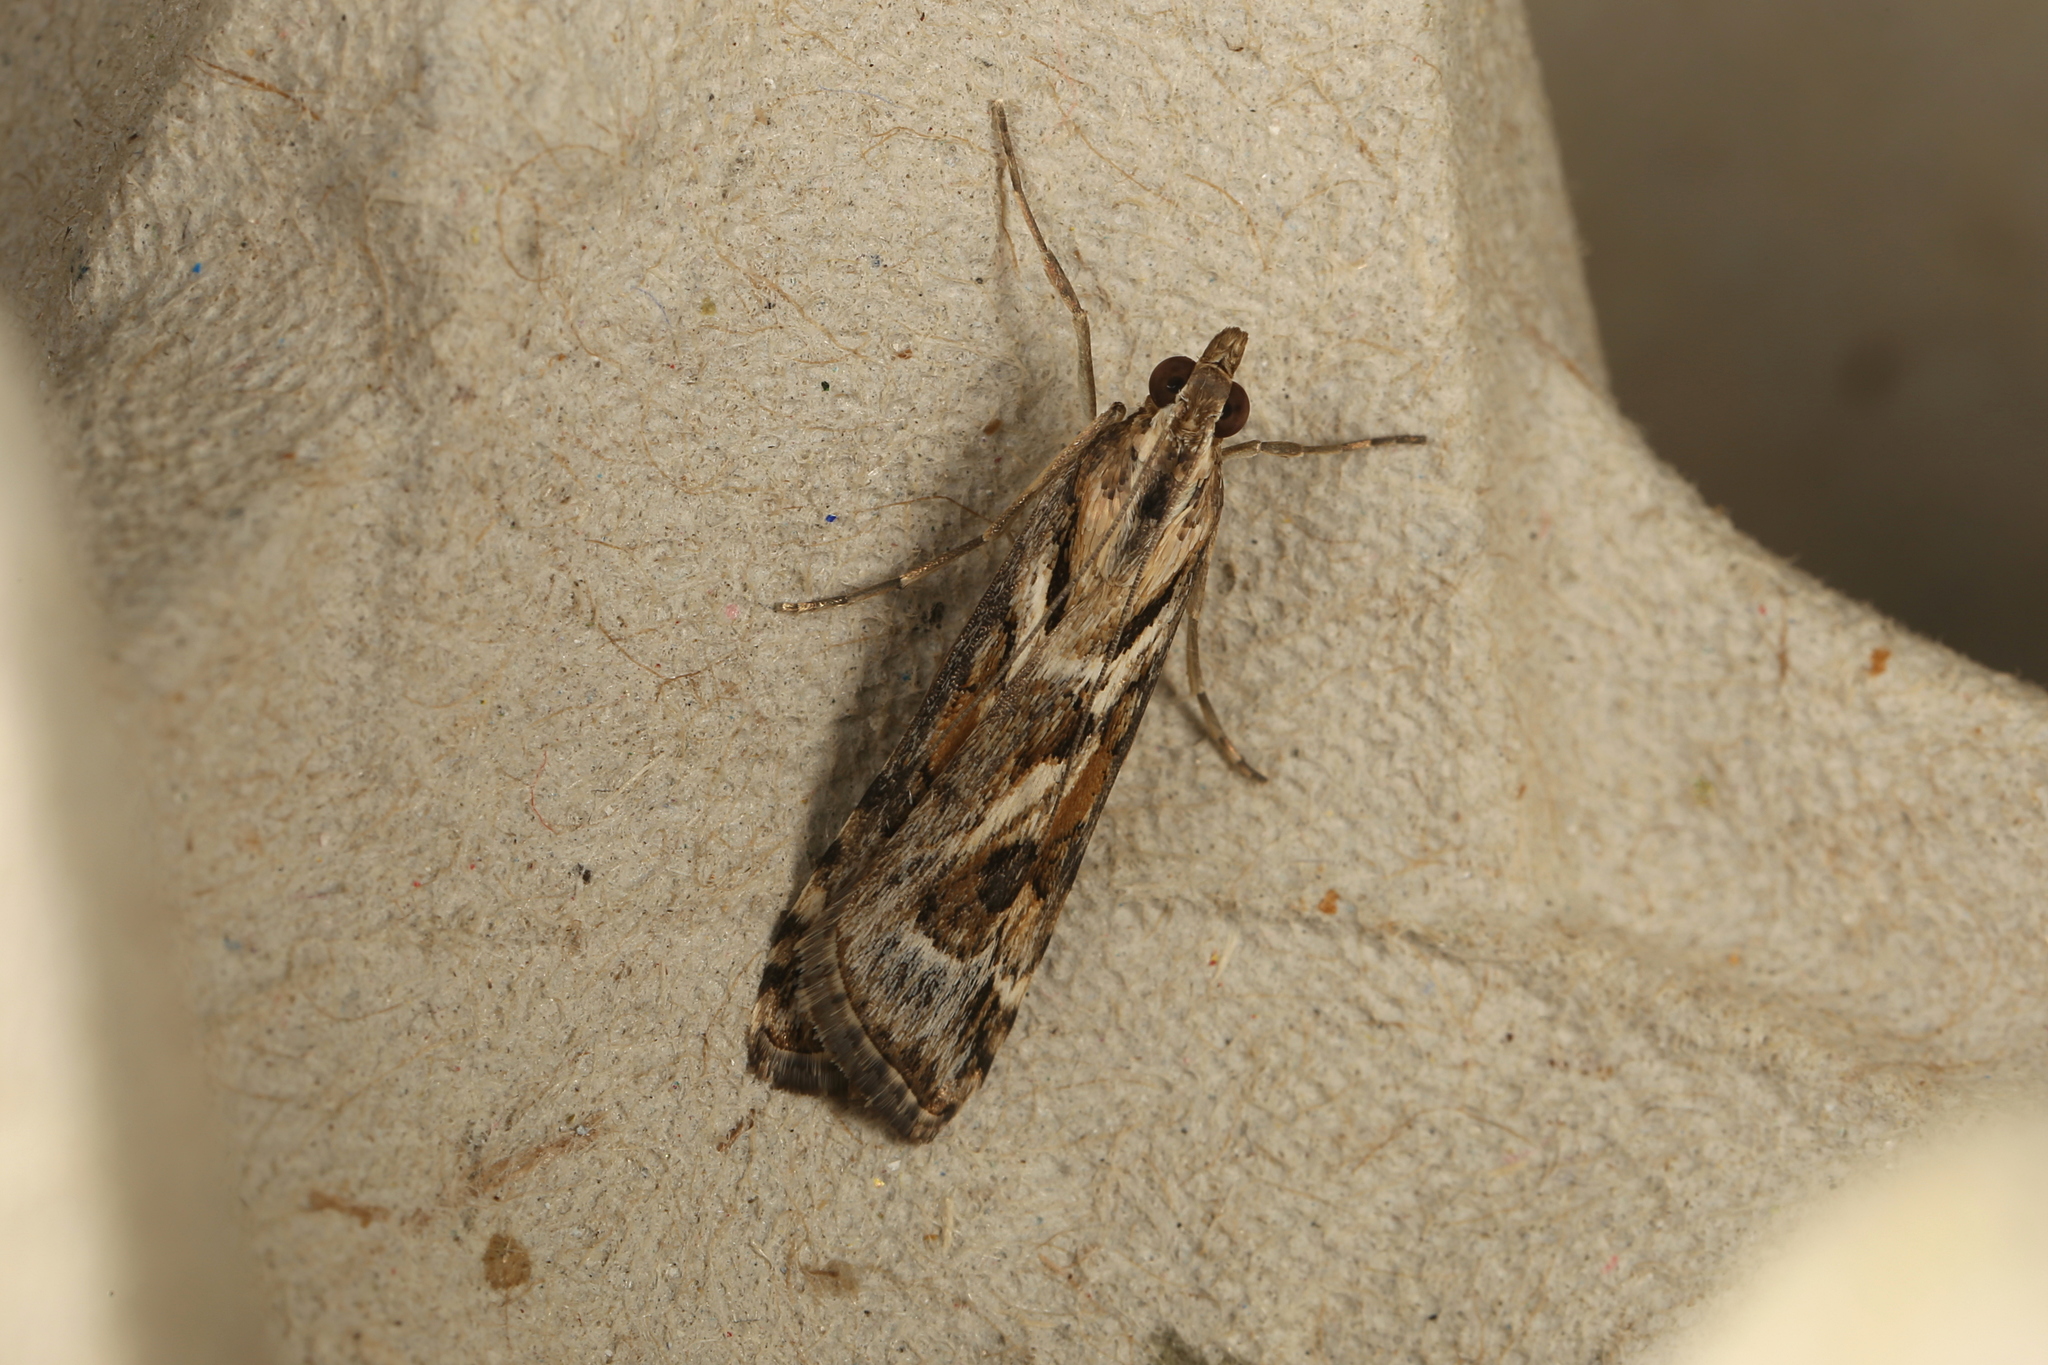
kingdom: Animalia
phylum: Arthropoda
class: Insecta
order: Lepidoptera
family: Crambidae
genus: Nomophila
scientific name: Nomophila corticalis
